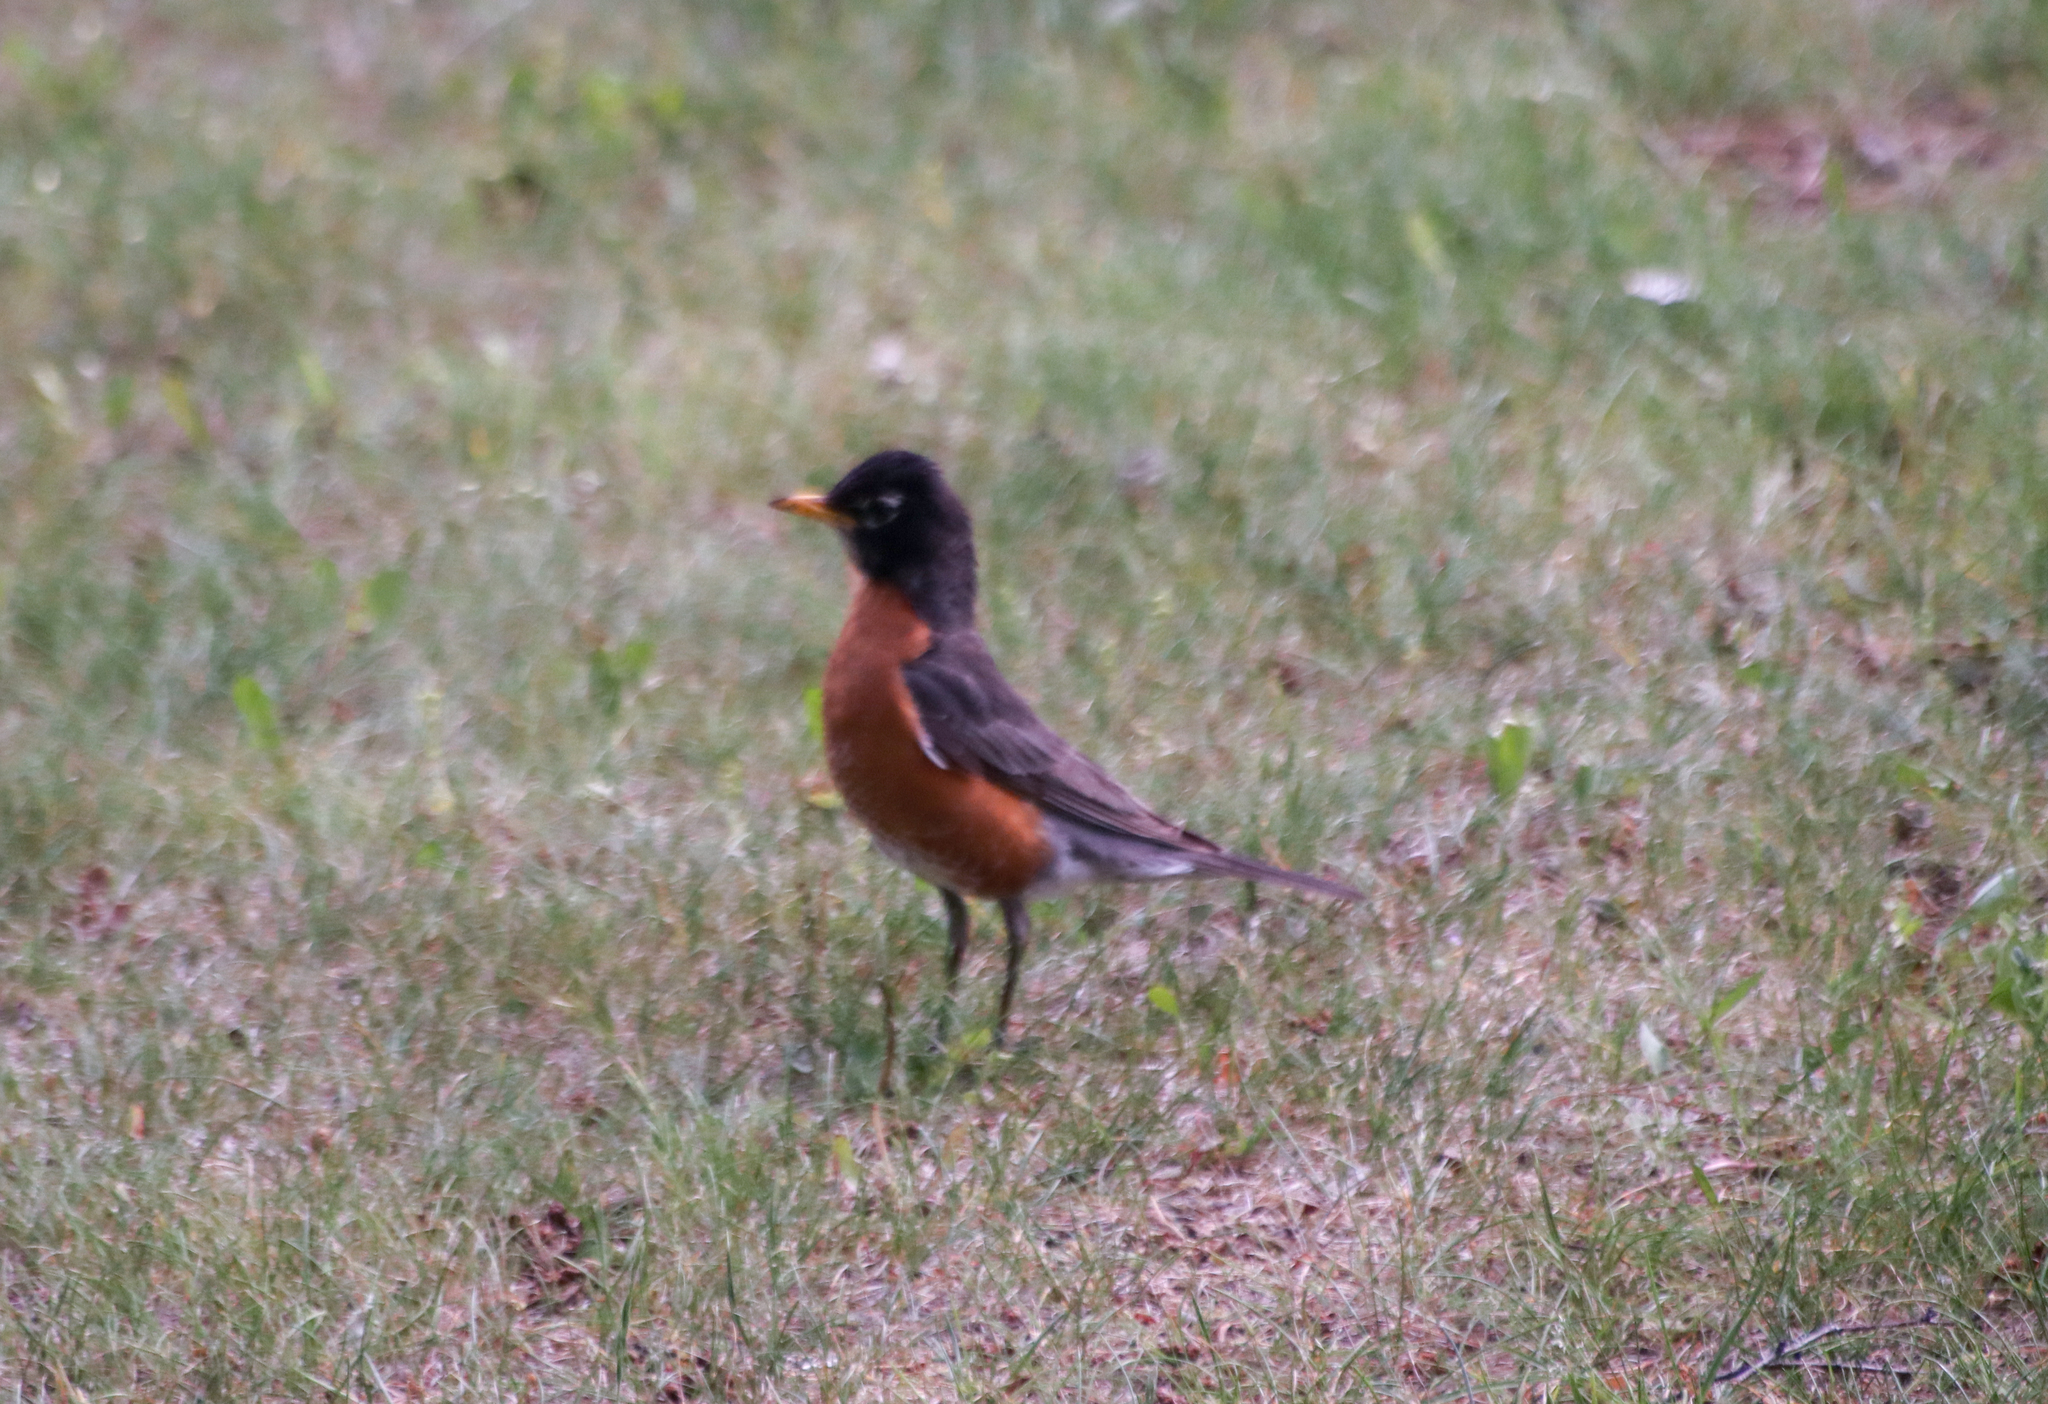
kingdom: Animalia
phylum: Chordata
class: Aves
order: Passeriformes
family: Turdidae
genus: Turdus
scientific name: Turdus migratorius
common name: American robin
